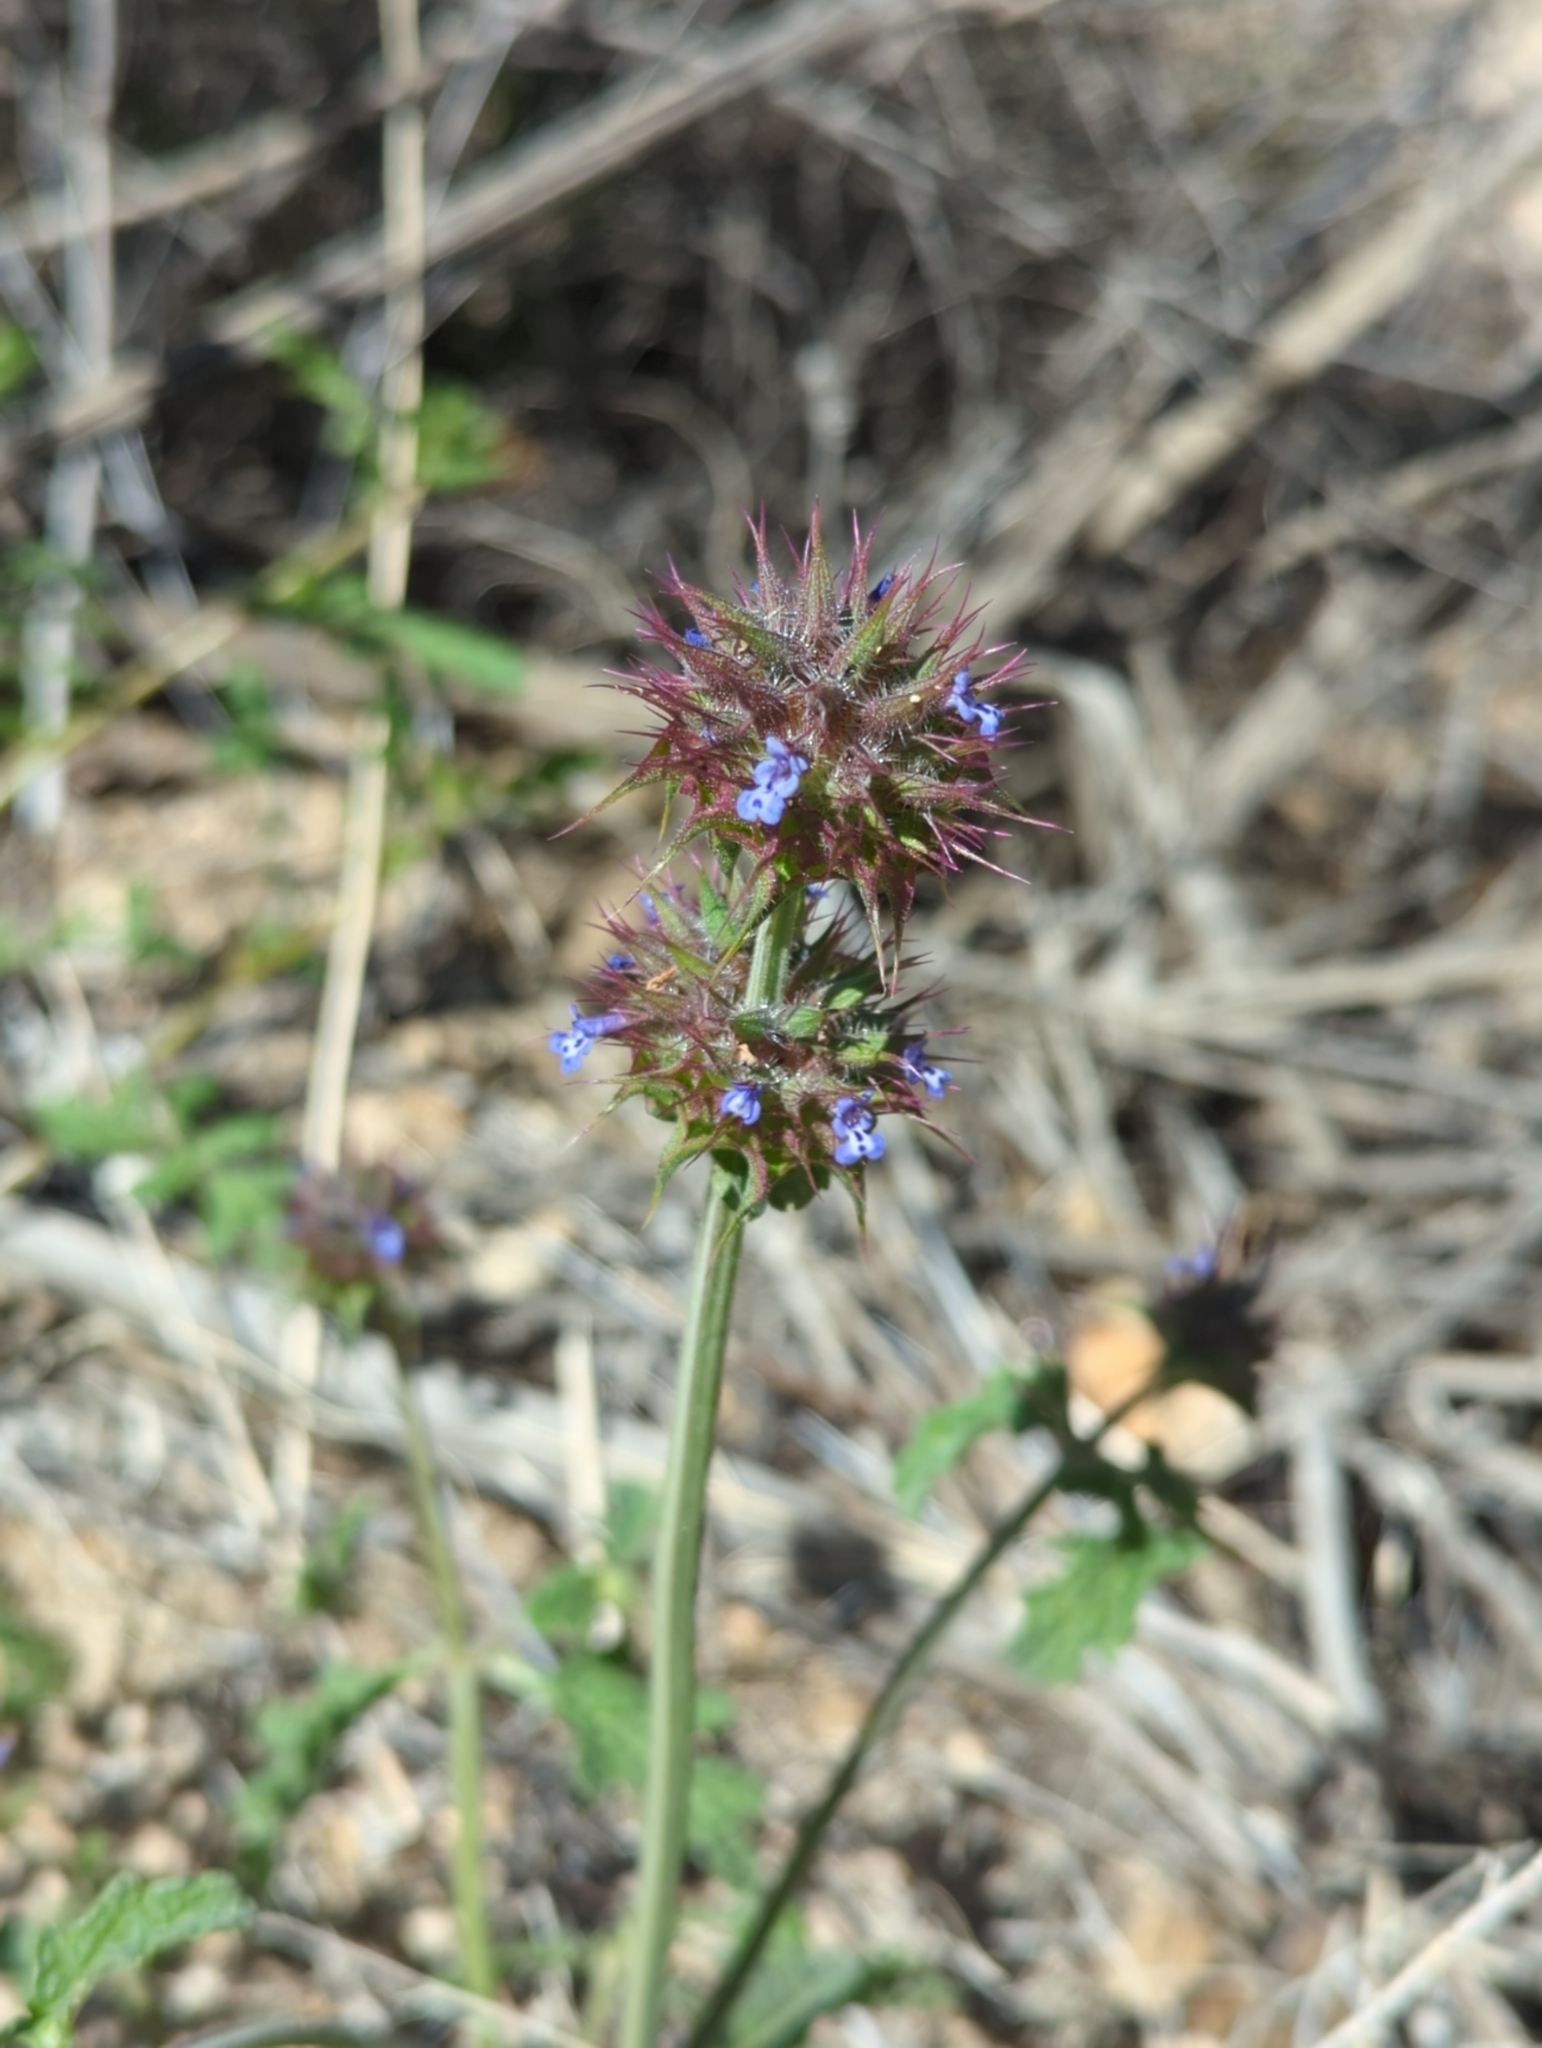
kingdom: Plantae
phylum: Tracheophyta
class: Magnoliopsida
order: Lamiales
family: Lamiaceae
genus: Salvia
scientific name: Salvia columbariae
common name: Chia
